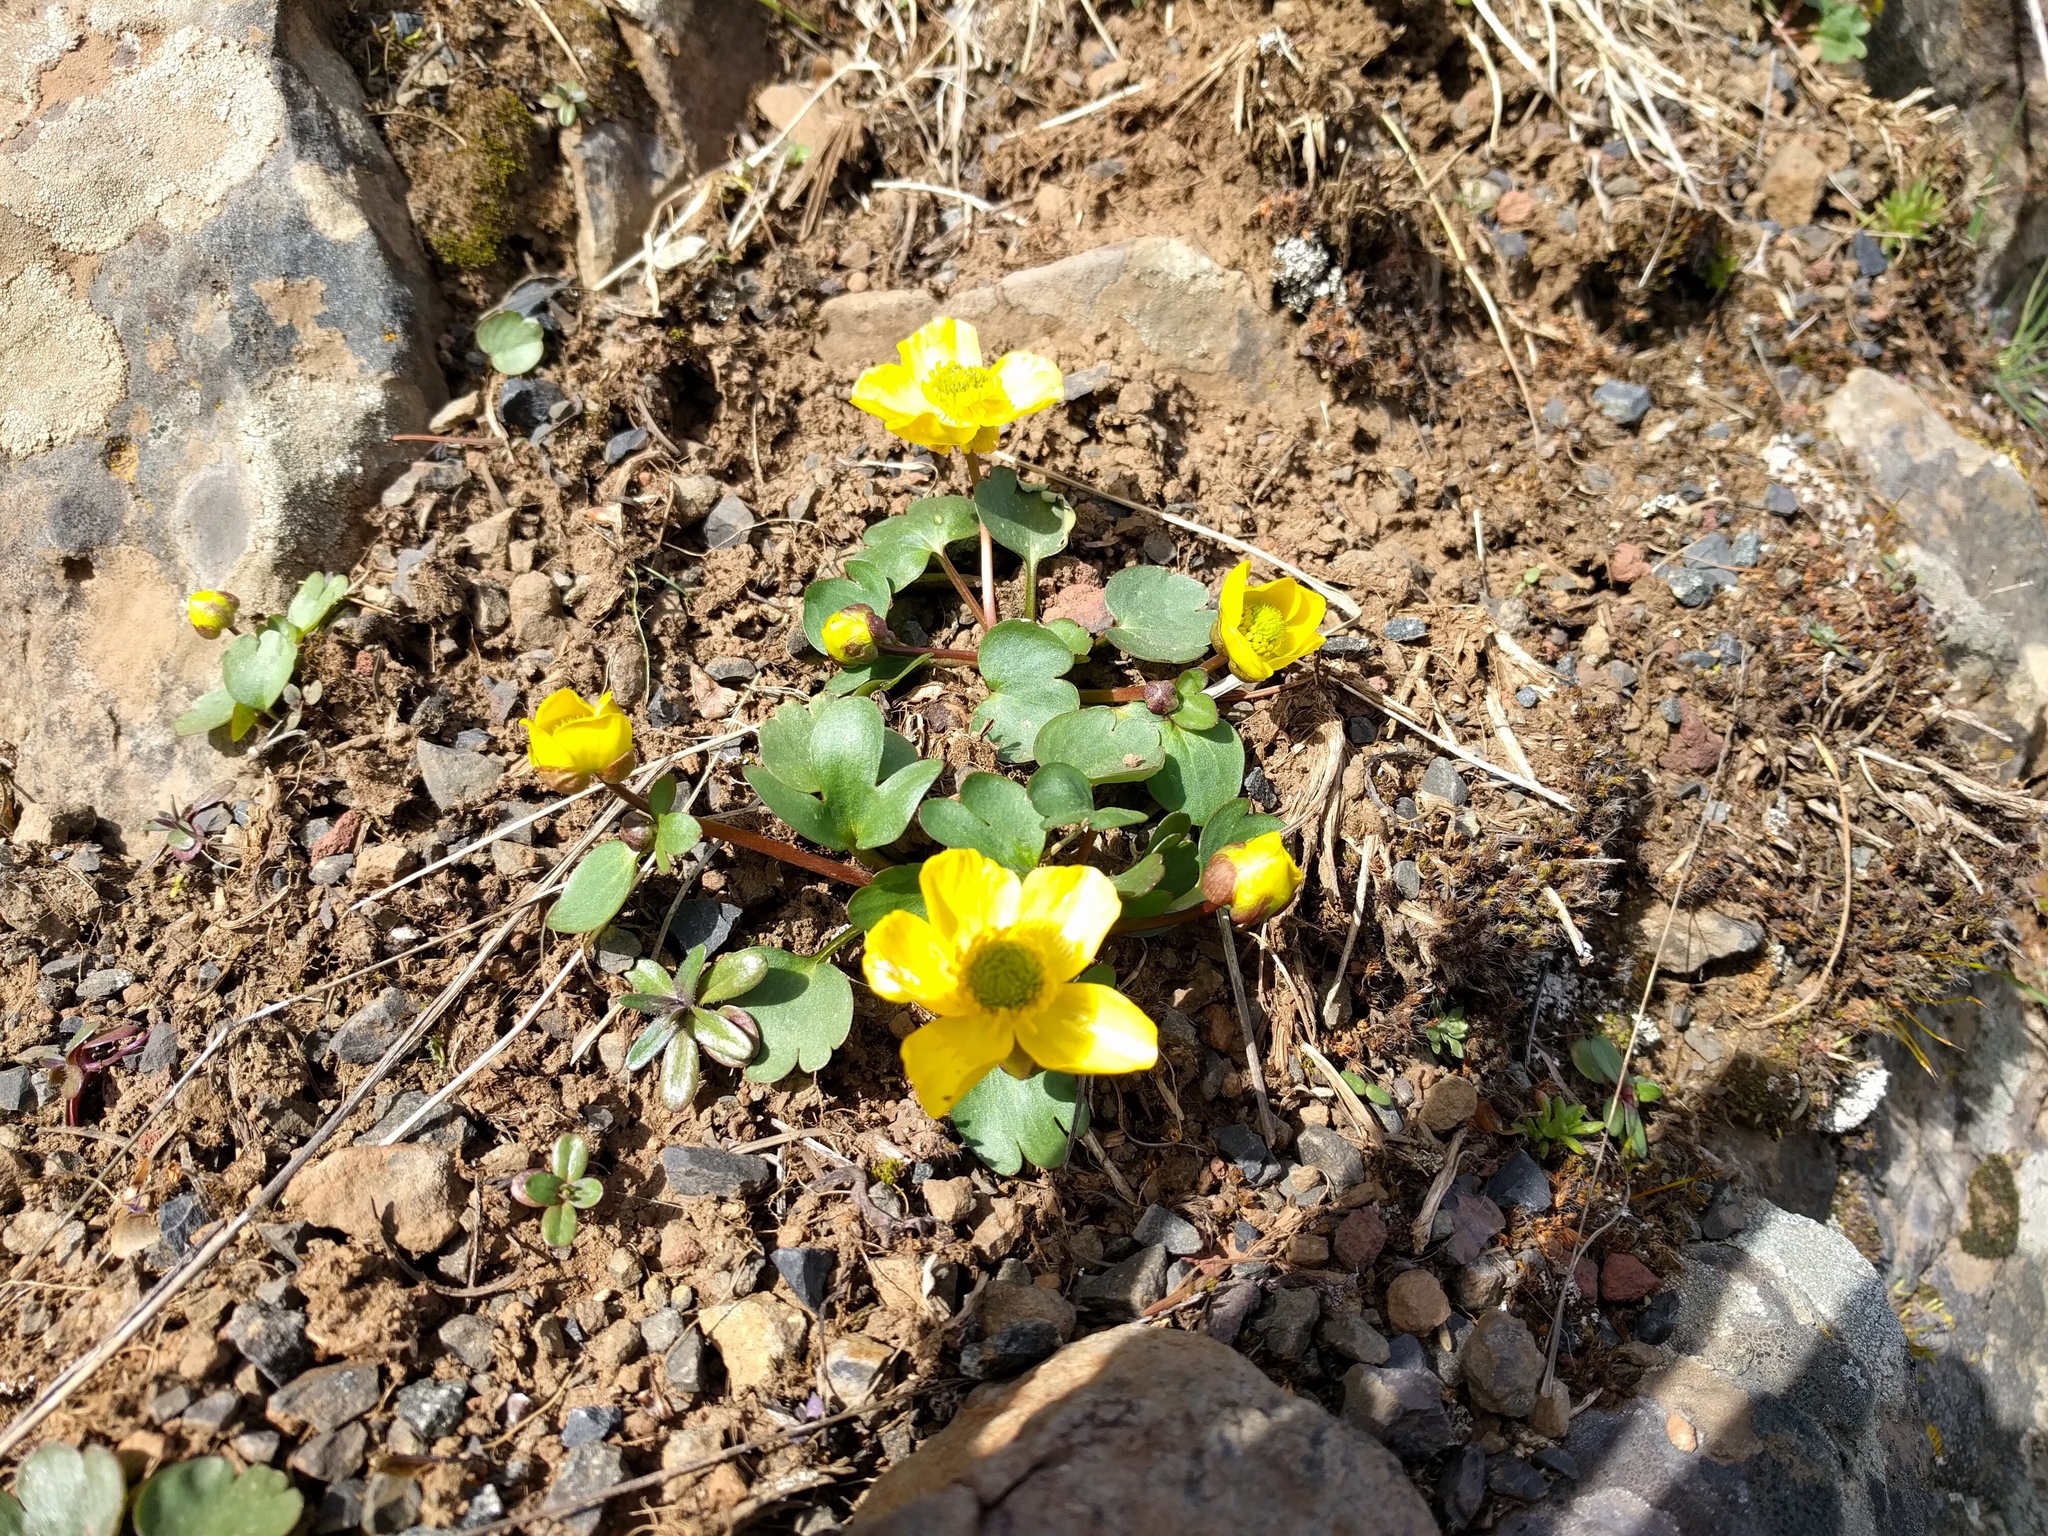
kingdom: Plantae
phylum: Tracheophyta
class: Magnoliopsida
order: Ranunculales
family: Ranunculaceae
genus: Ranunculus
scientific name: Ranunculus glaberrimus
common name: Sagebrush buttercup
